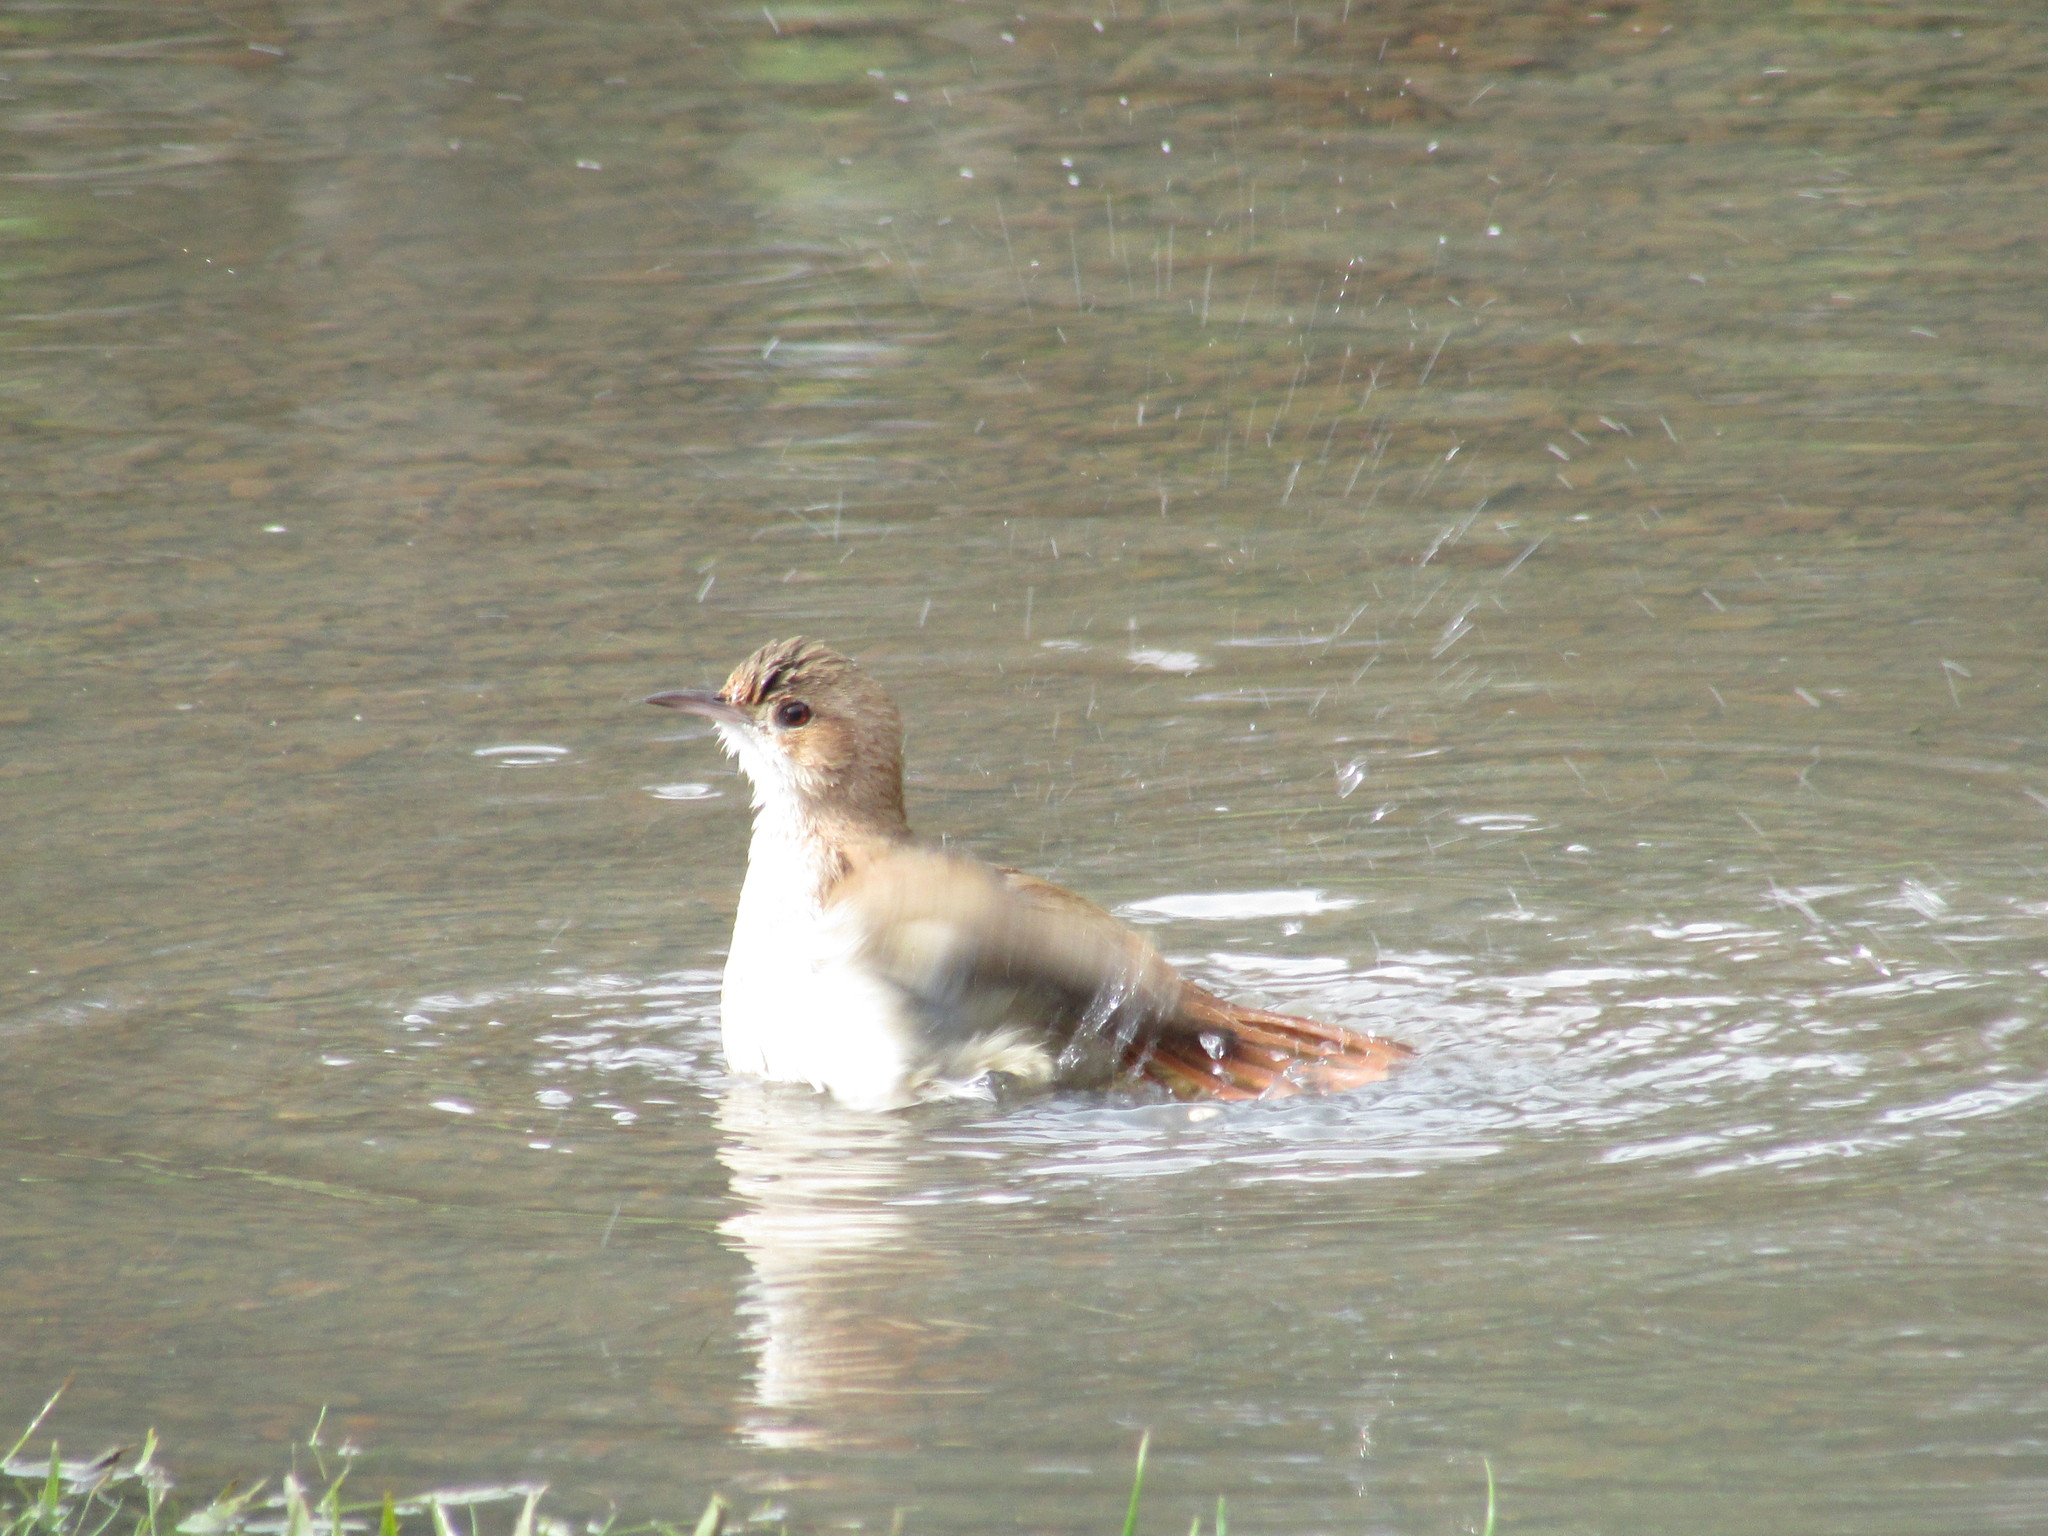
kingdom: Animalia
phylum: Chordata
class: Aves
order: Passeriformes
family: Furnariidae
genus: Furnarius
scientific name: Furnarius rufus
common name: Rufous hornero
